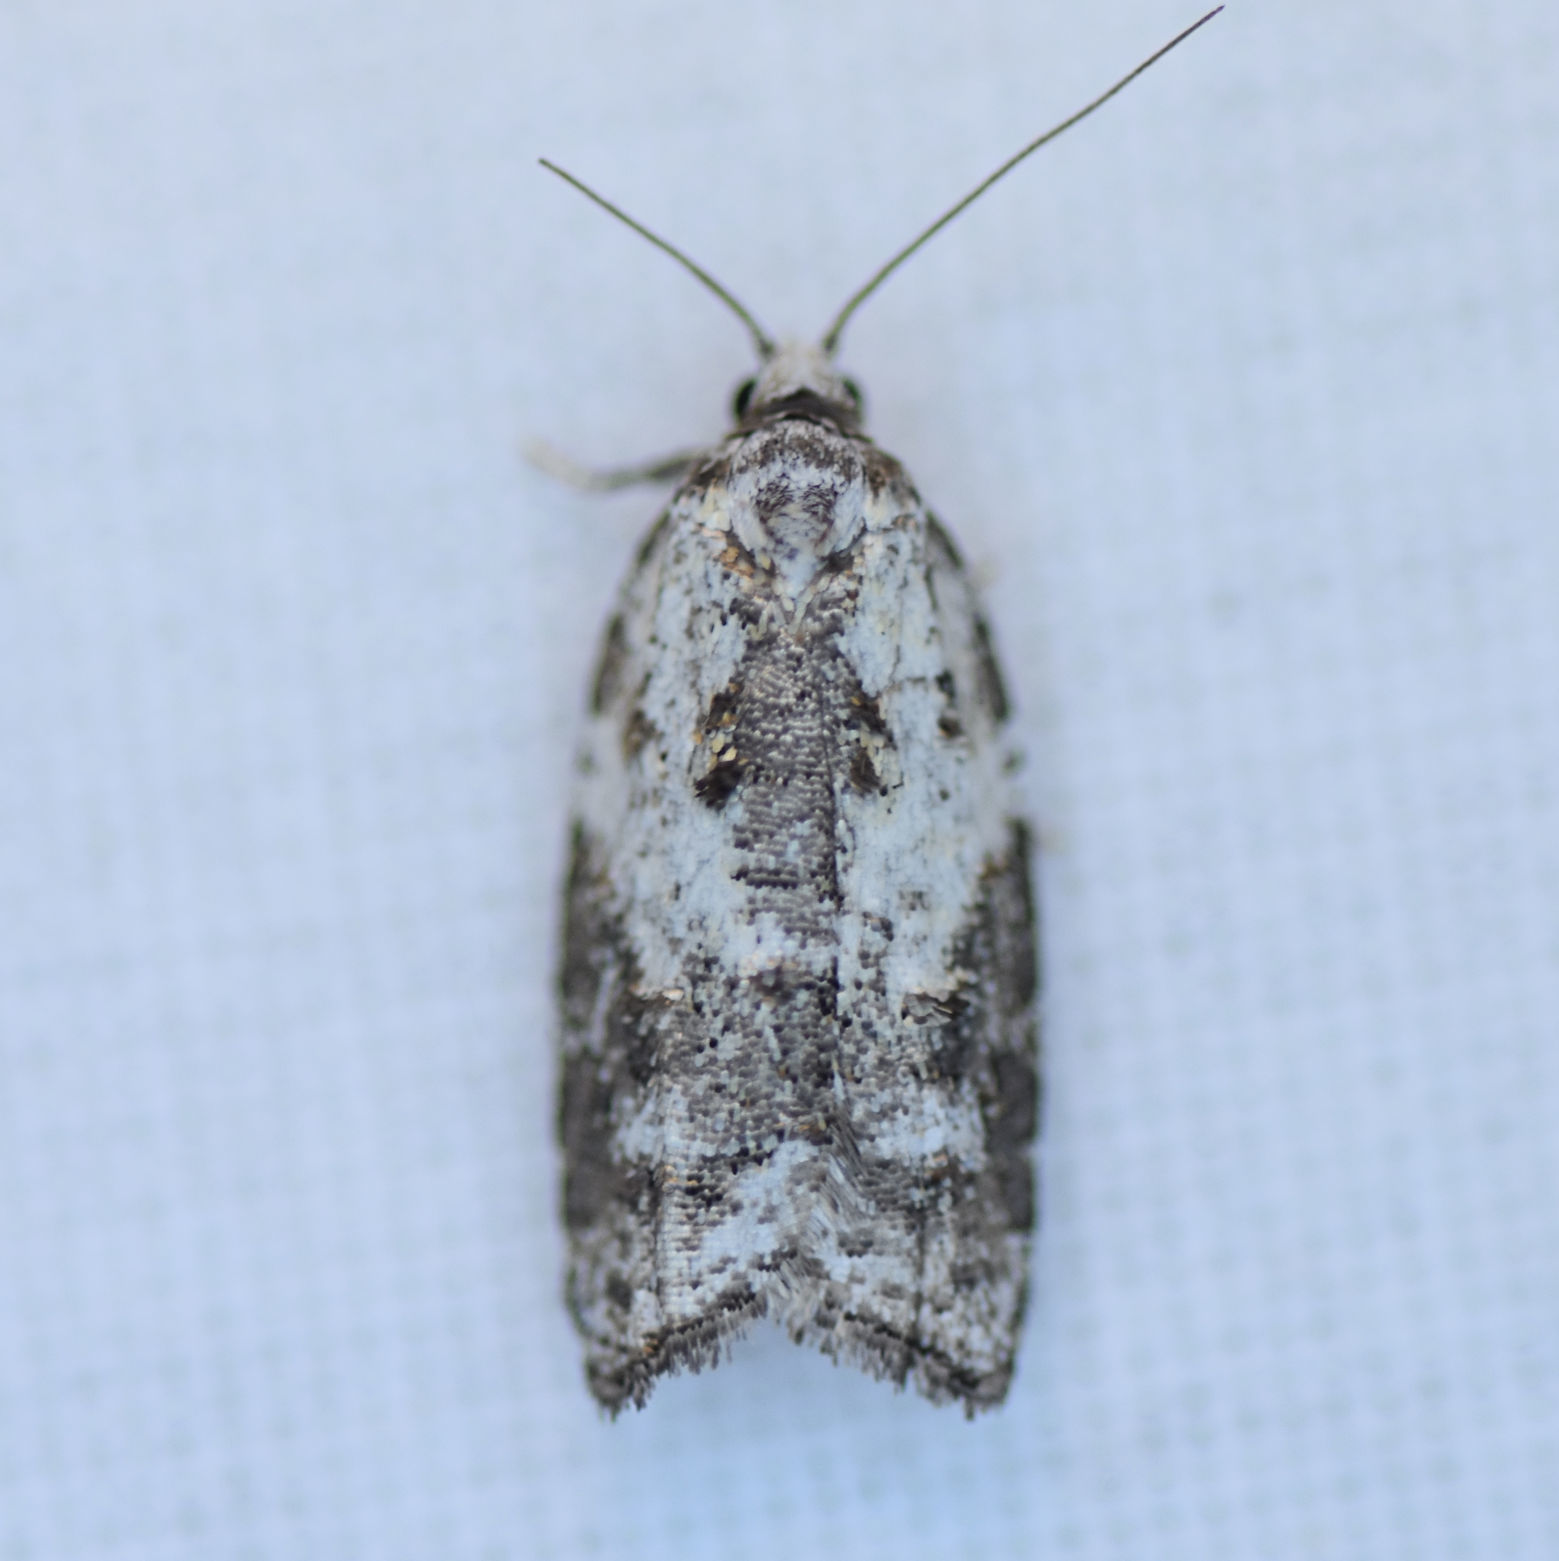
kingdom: Animalia
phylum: Arthropoda
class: Insecta
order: Lepidoptera
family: Tortricidae
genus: Acleris
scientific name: Acleris variana
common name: Eastern black-headed budworm moth
